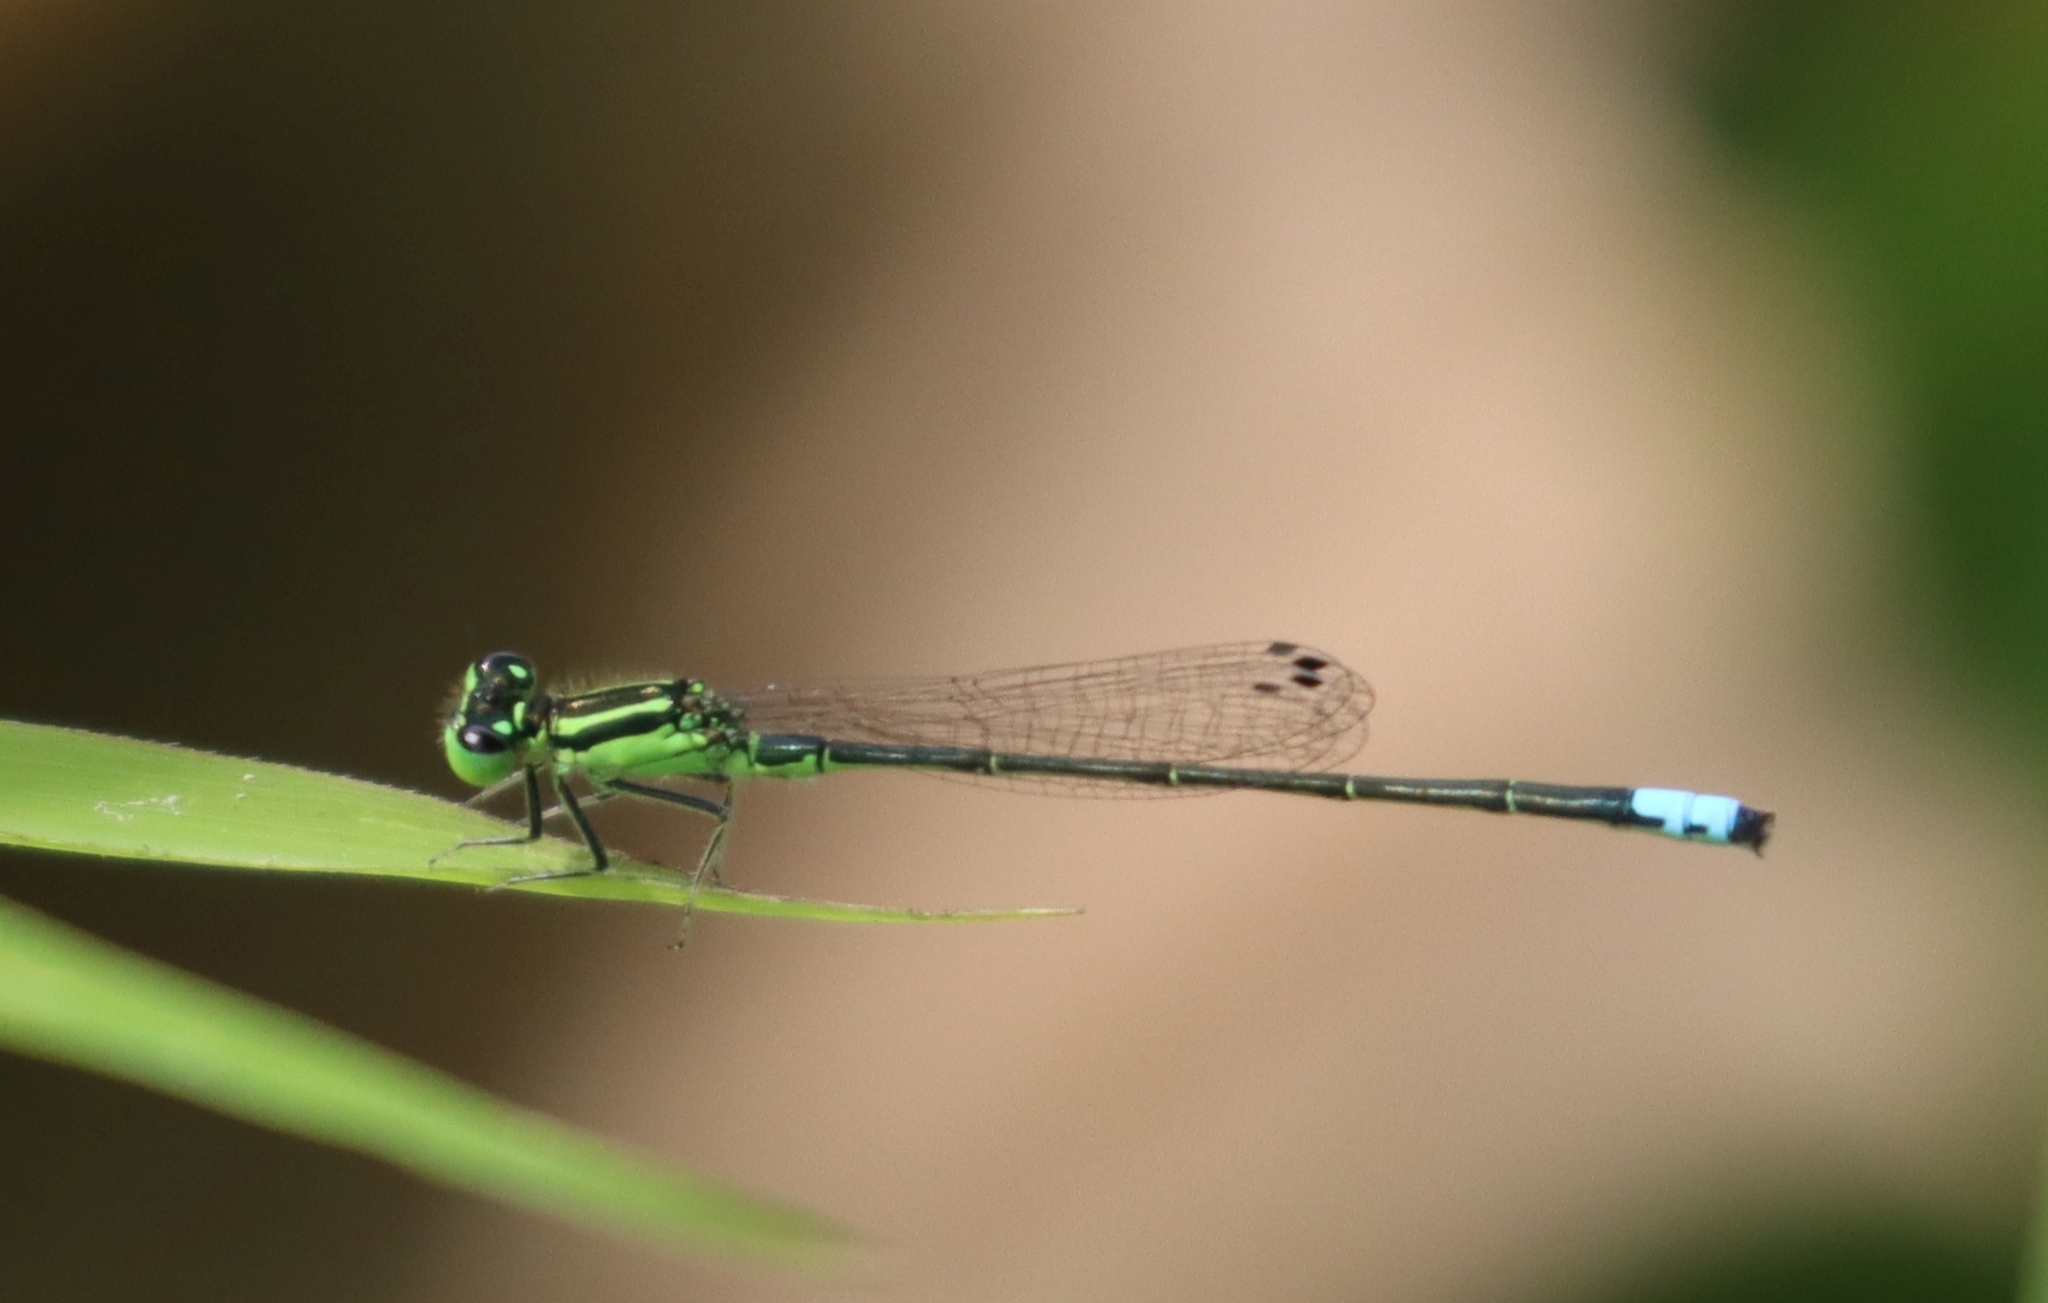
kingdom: Animalia
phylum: Arthropoda
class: Insecta
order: Odonata
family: Coenagrionidae
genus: Ischnura
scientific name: Ischnura verticalis
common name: Eastern forktail
